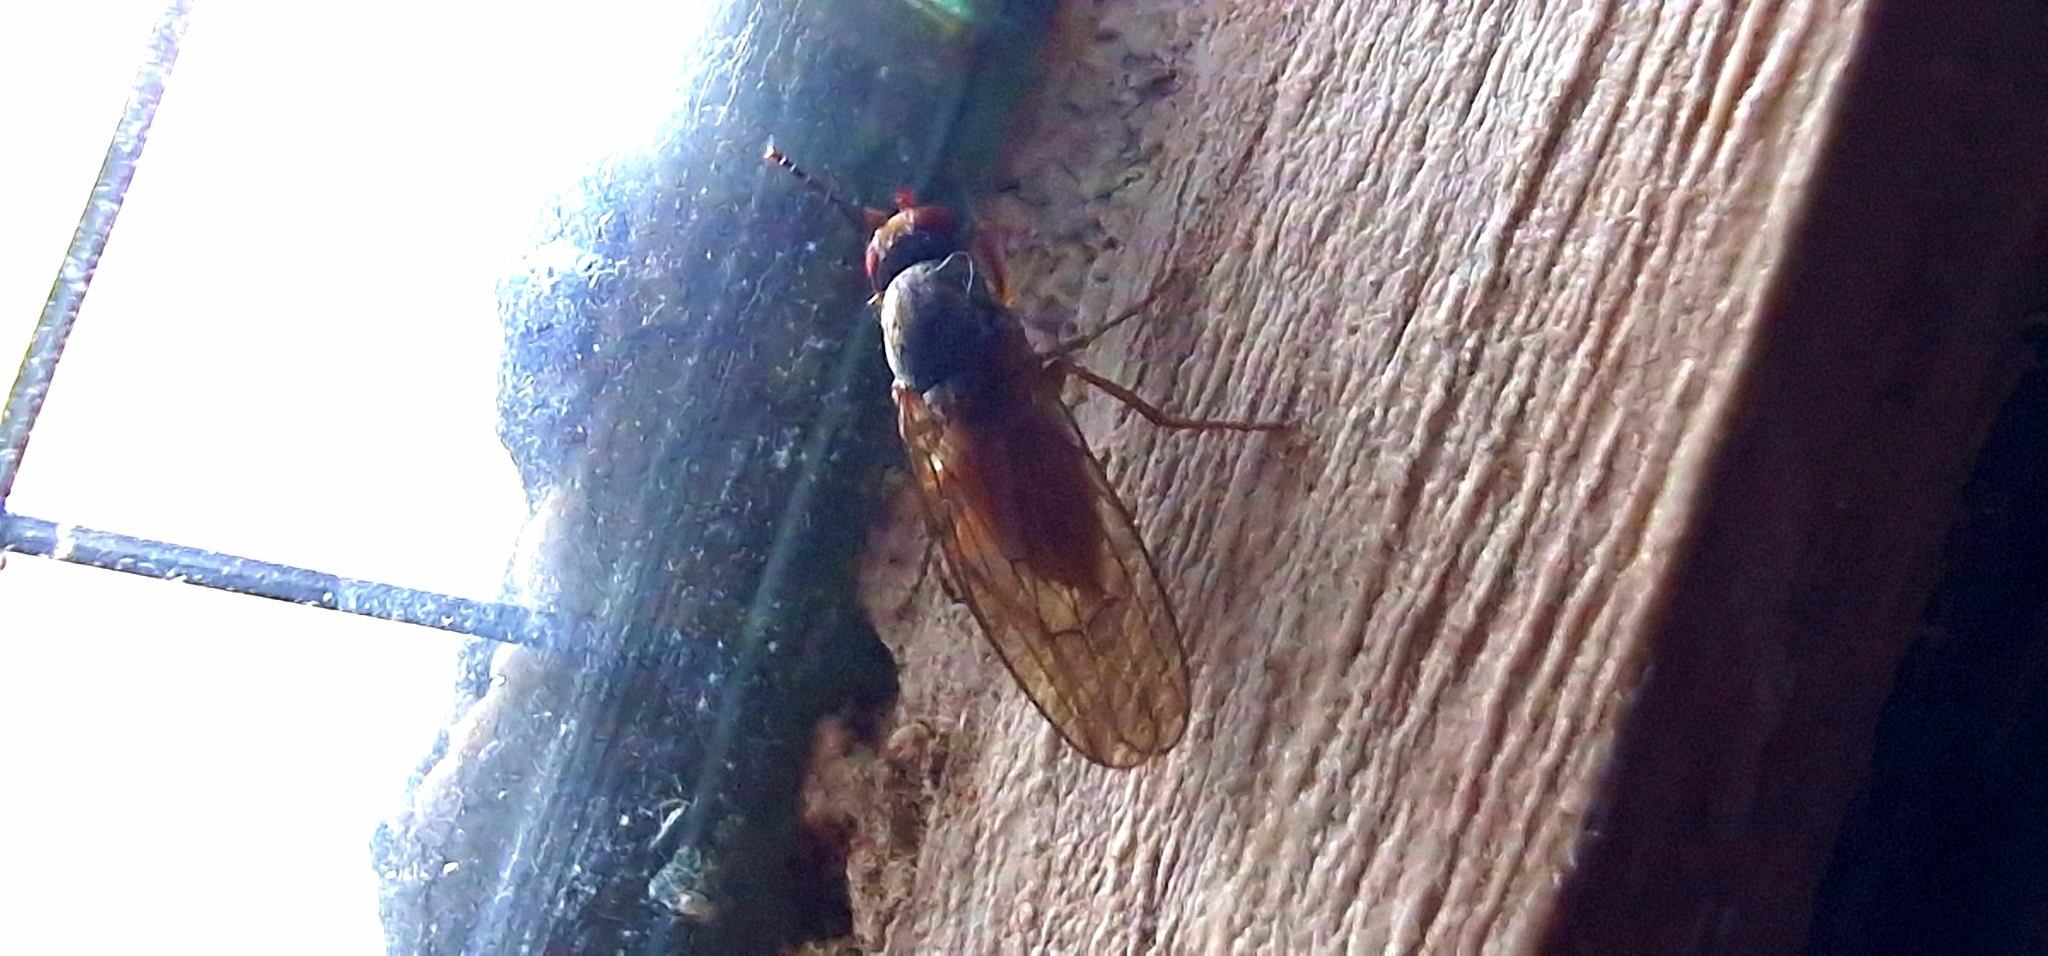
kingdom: Animalia
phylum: Arthropoda
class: Insecta
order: Diptera
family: Heleomyzidae
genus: Tephrochlamys
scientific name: Tephrochlamys flavipes
